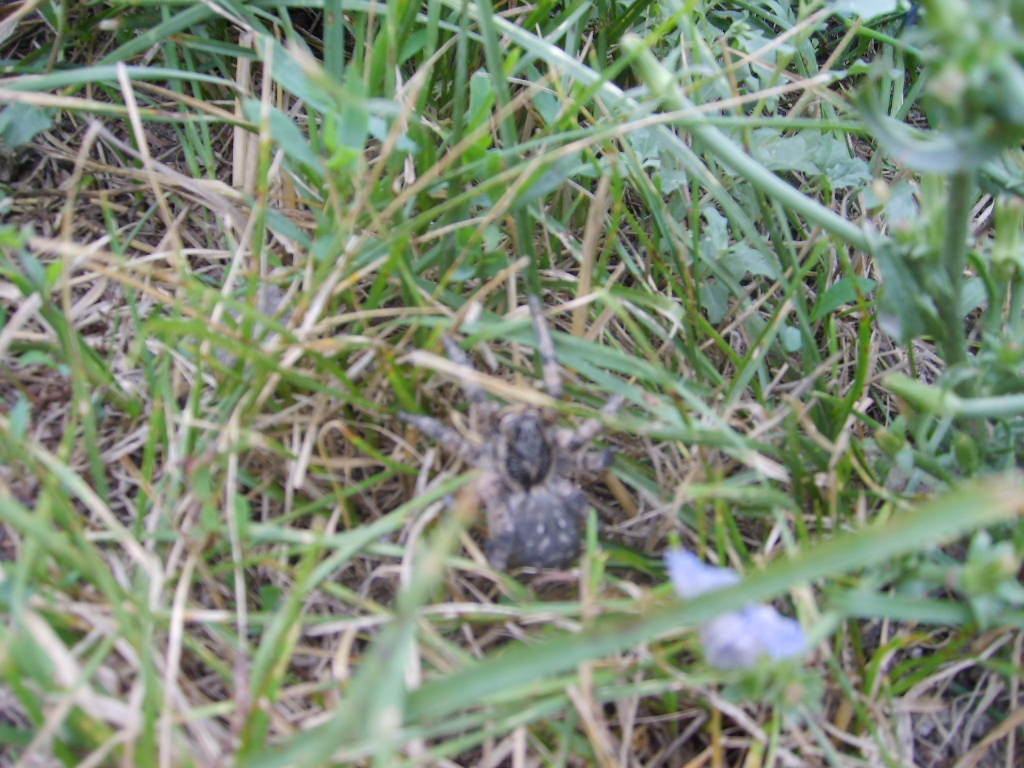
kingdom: Animalia
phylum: Arthropoda
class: Arachnida
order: Araneae
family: Lycosidae
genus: Lycosa
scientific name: Lycosa singoriensis
